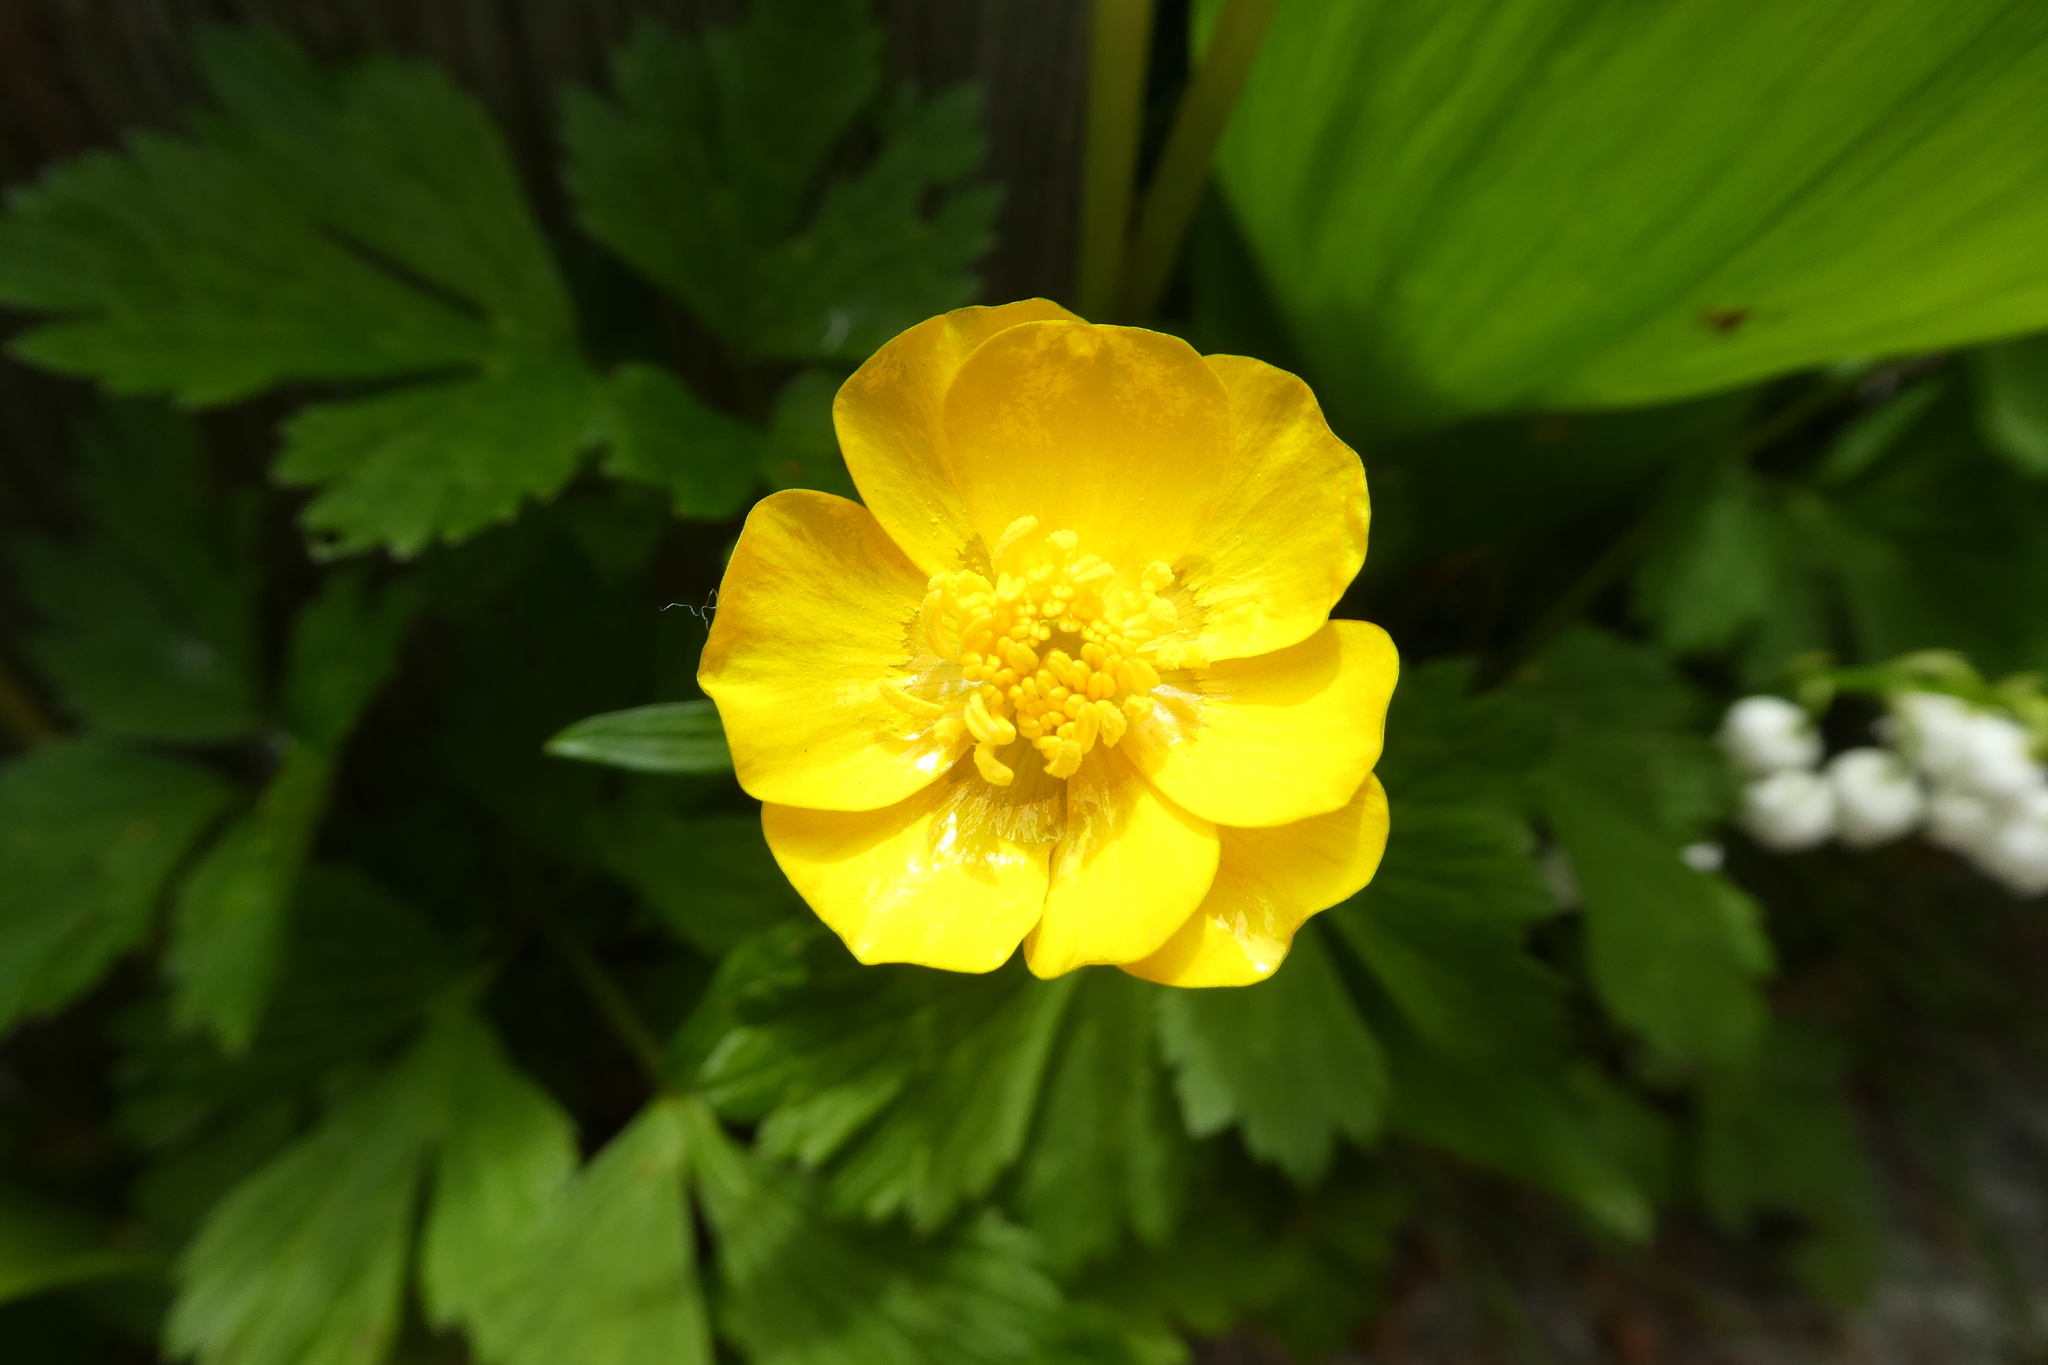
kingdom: Plantae
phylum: Tracheophyta
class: Magnoliopsida
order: Ranunculales
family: Ranunculaceae
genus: Ranunculus
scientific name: Ranunculus repens
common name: Creeping buttercup
